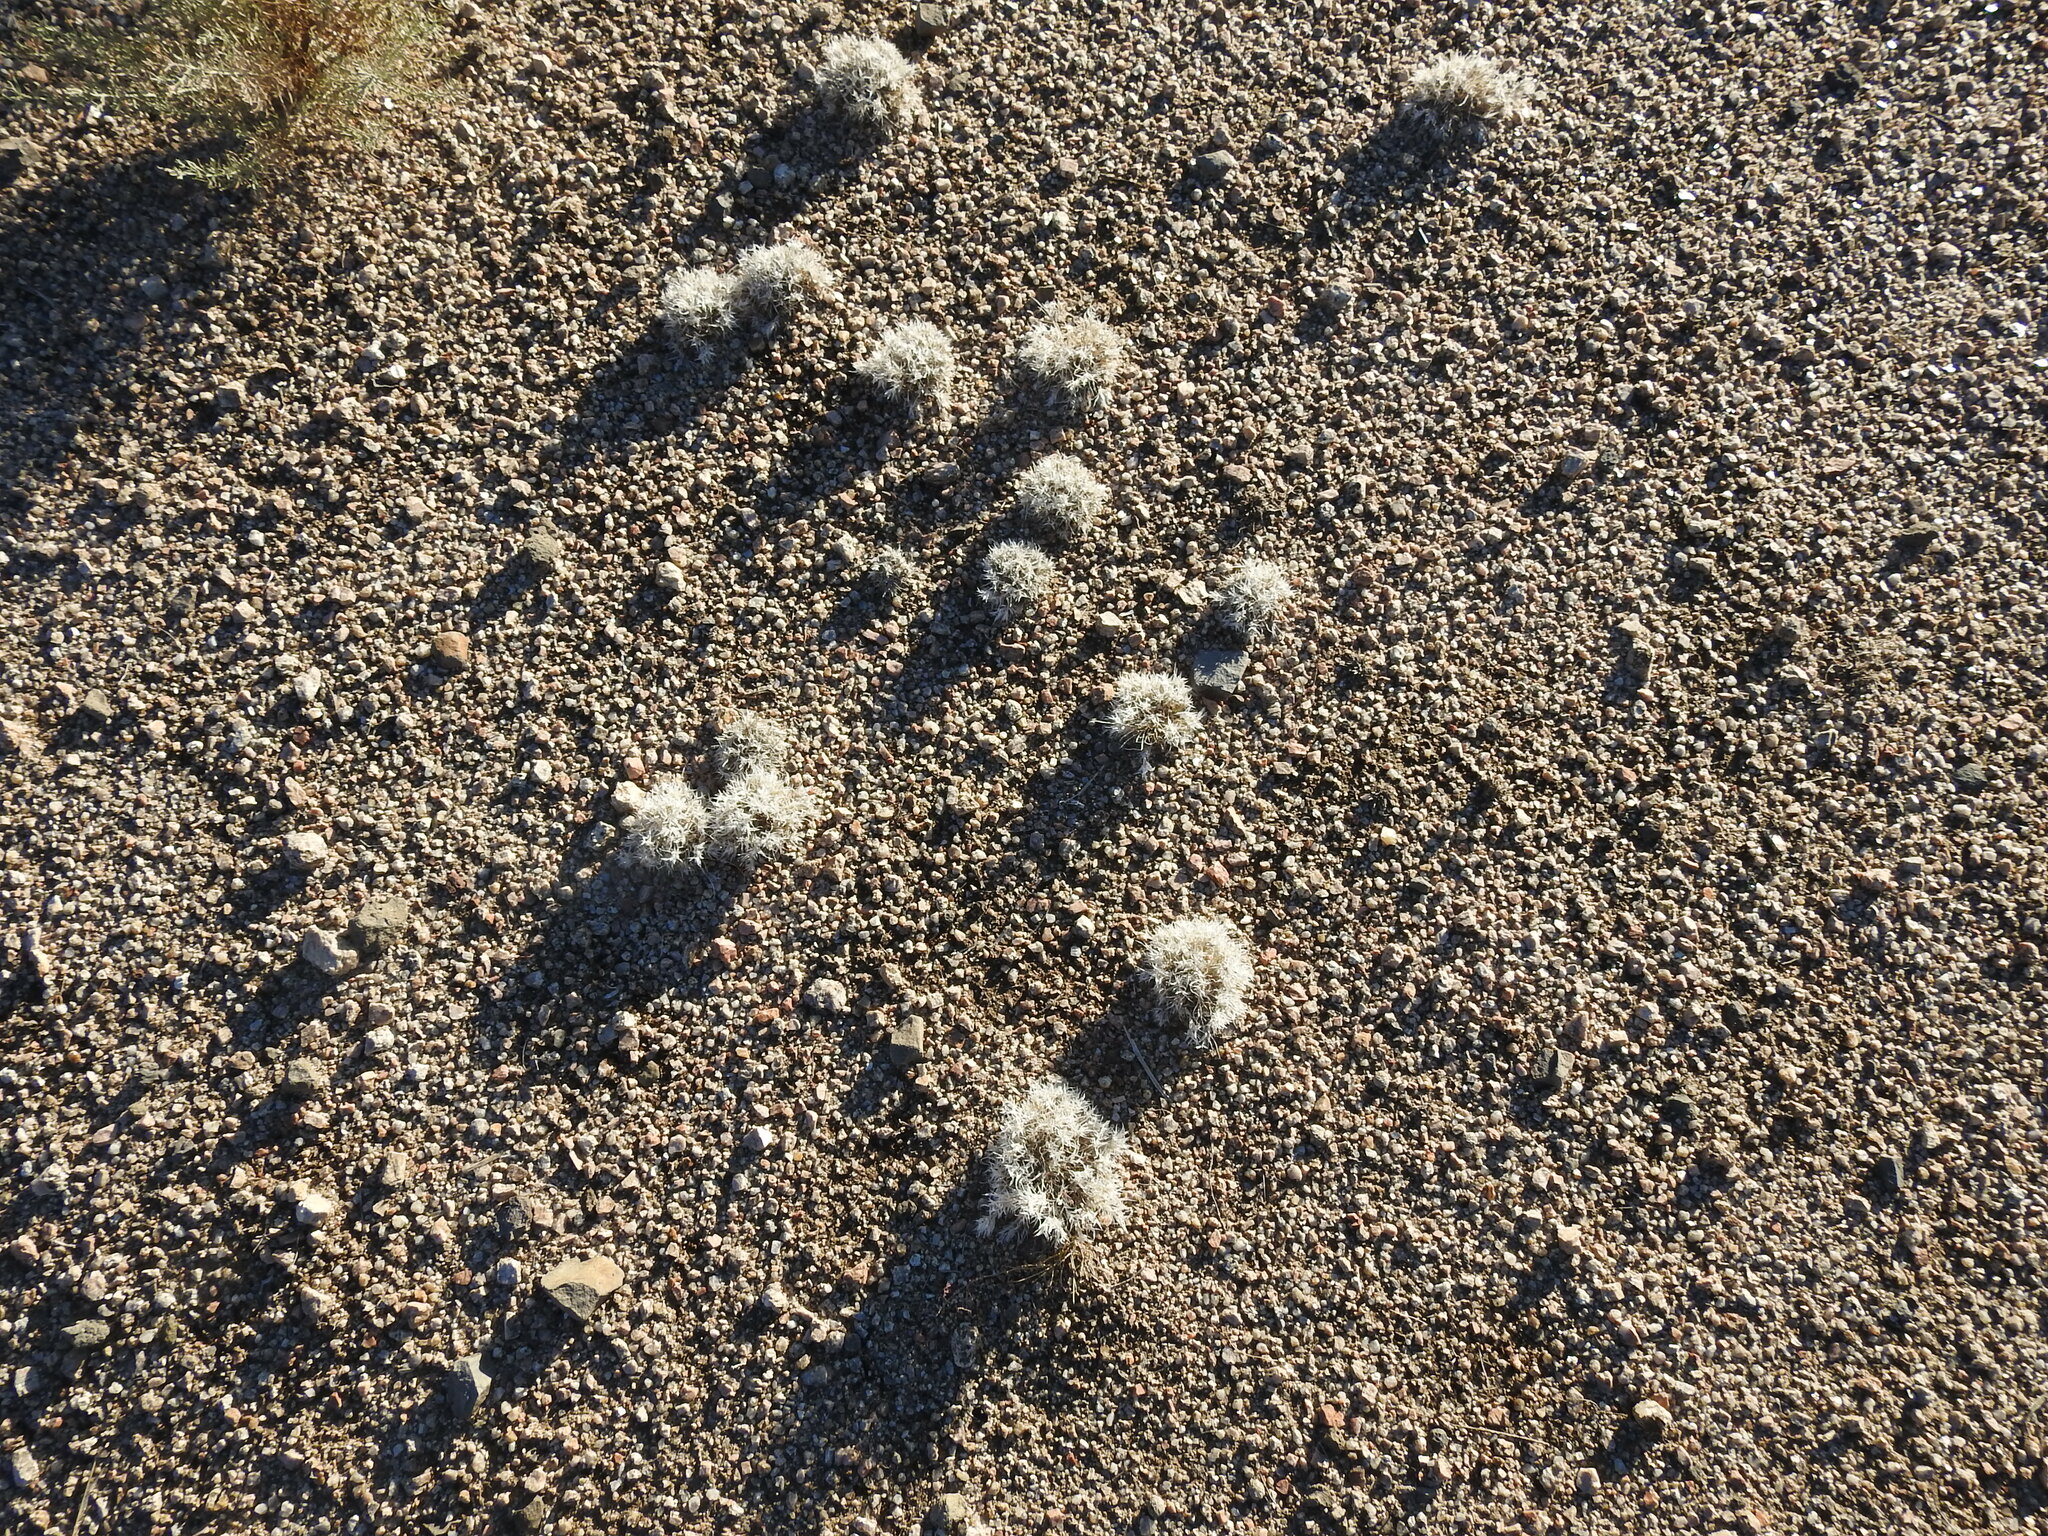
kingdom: Plantae
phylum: Tracheophyta
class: Liliopsida
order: Poales
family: Poaceae
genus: Dasyochloa
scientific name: Dasyochloa pulchella
